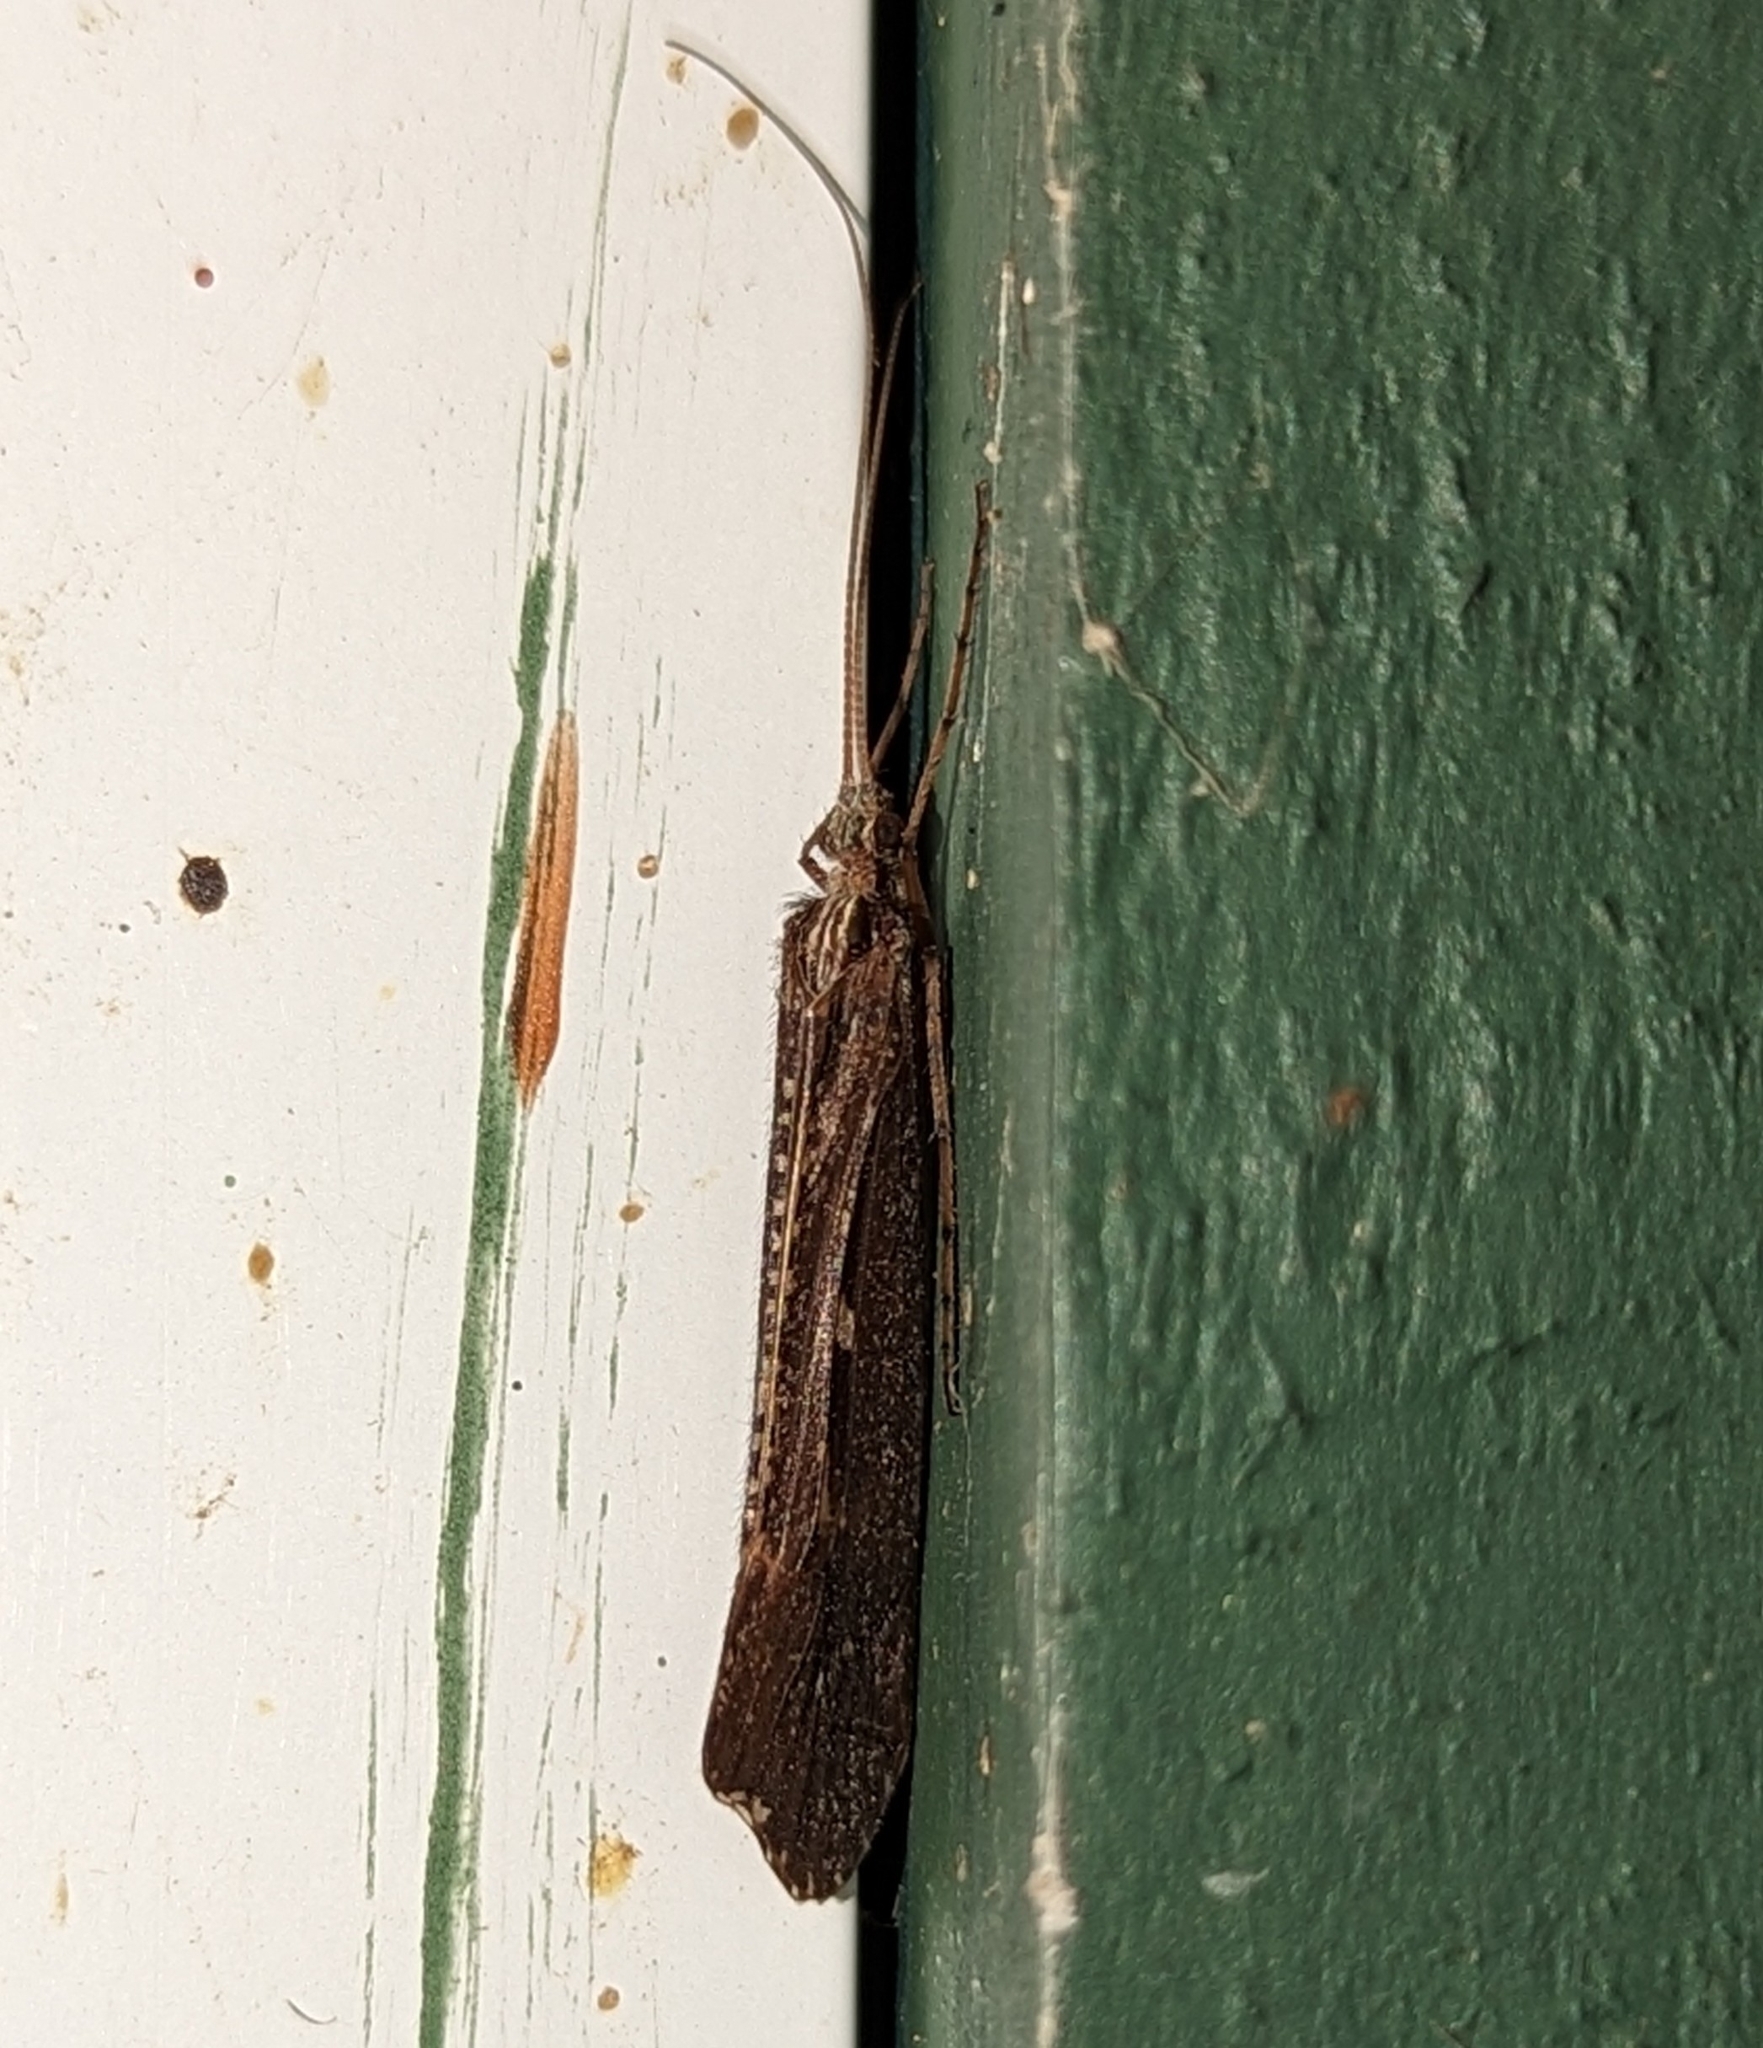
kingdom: Animalia
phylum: Arthropoda
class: Insecta
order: Trichoptera
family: Limnephilidae
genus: Glyphopsyche
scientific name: Glyphopsyche irrorata
